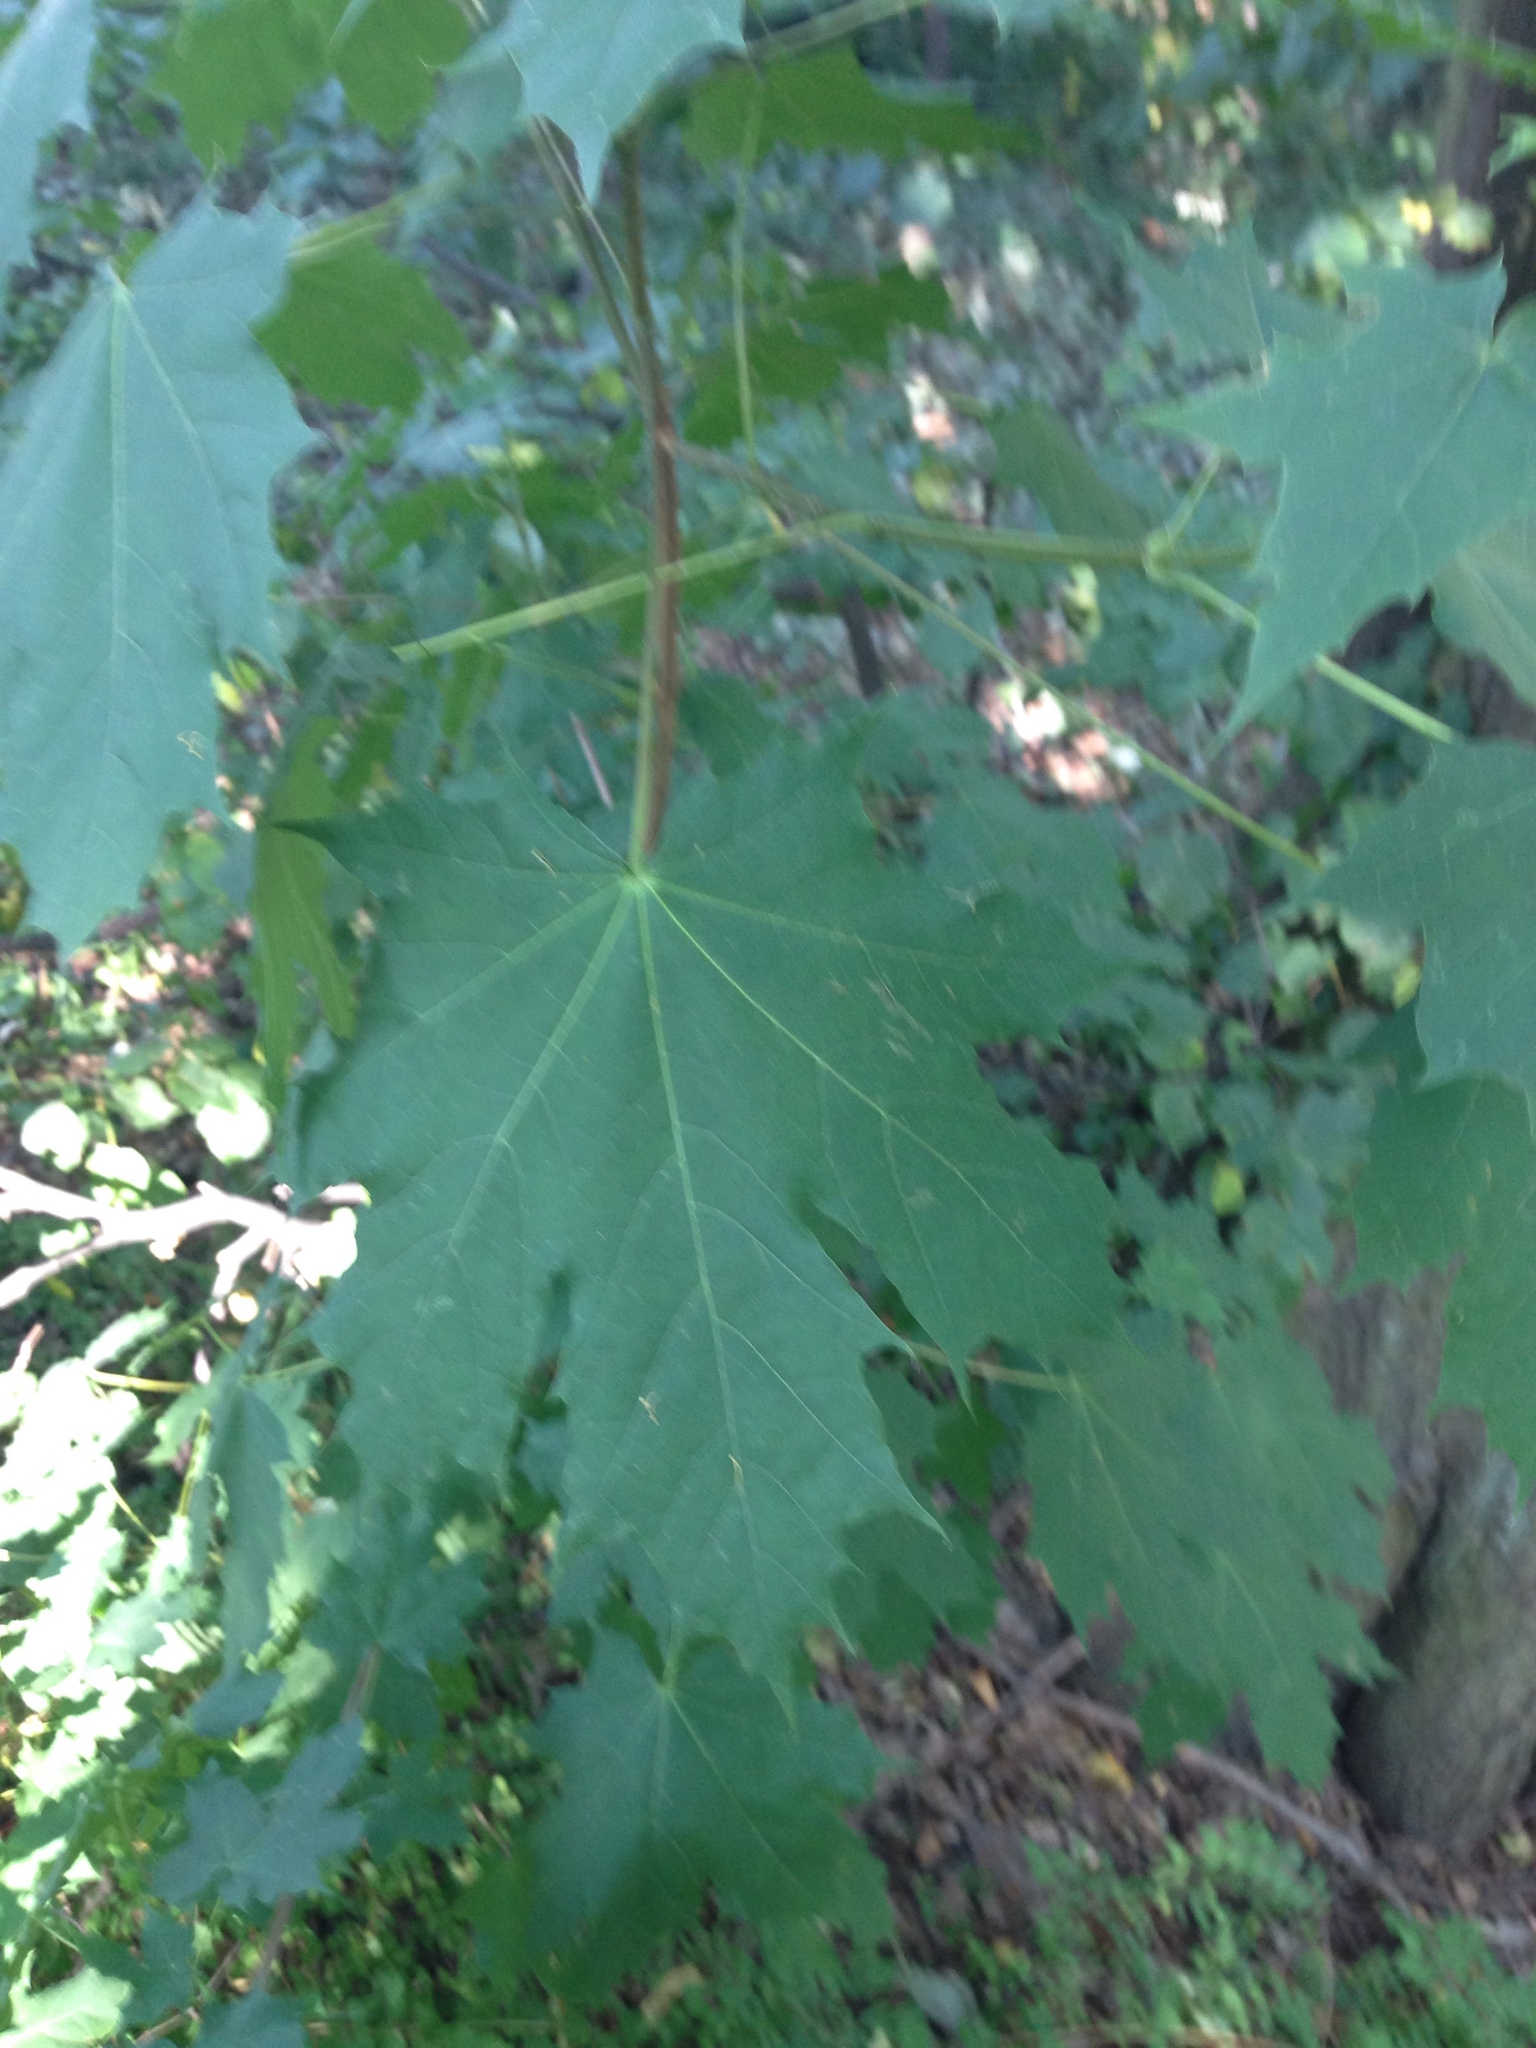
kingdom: Plantae
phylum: Tracheophyta
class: Magnoliopsida
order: Sapindales
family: Sapindaceae
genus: Acer
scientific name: Acer platanoides
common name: Norway maple
